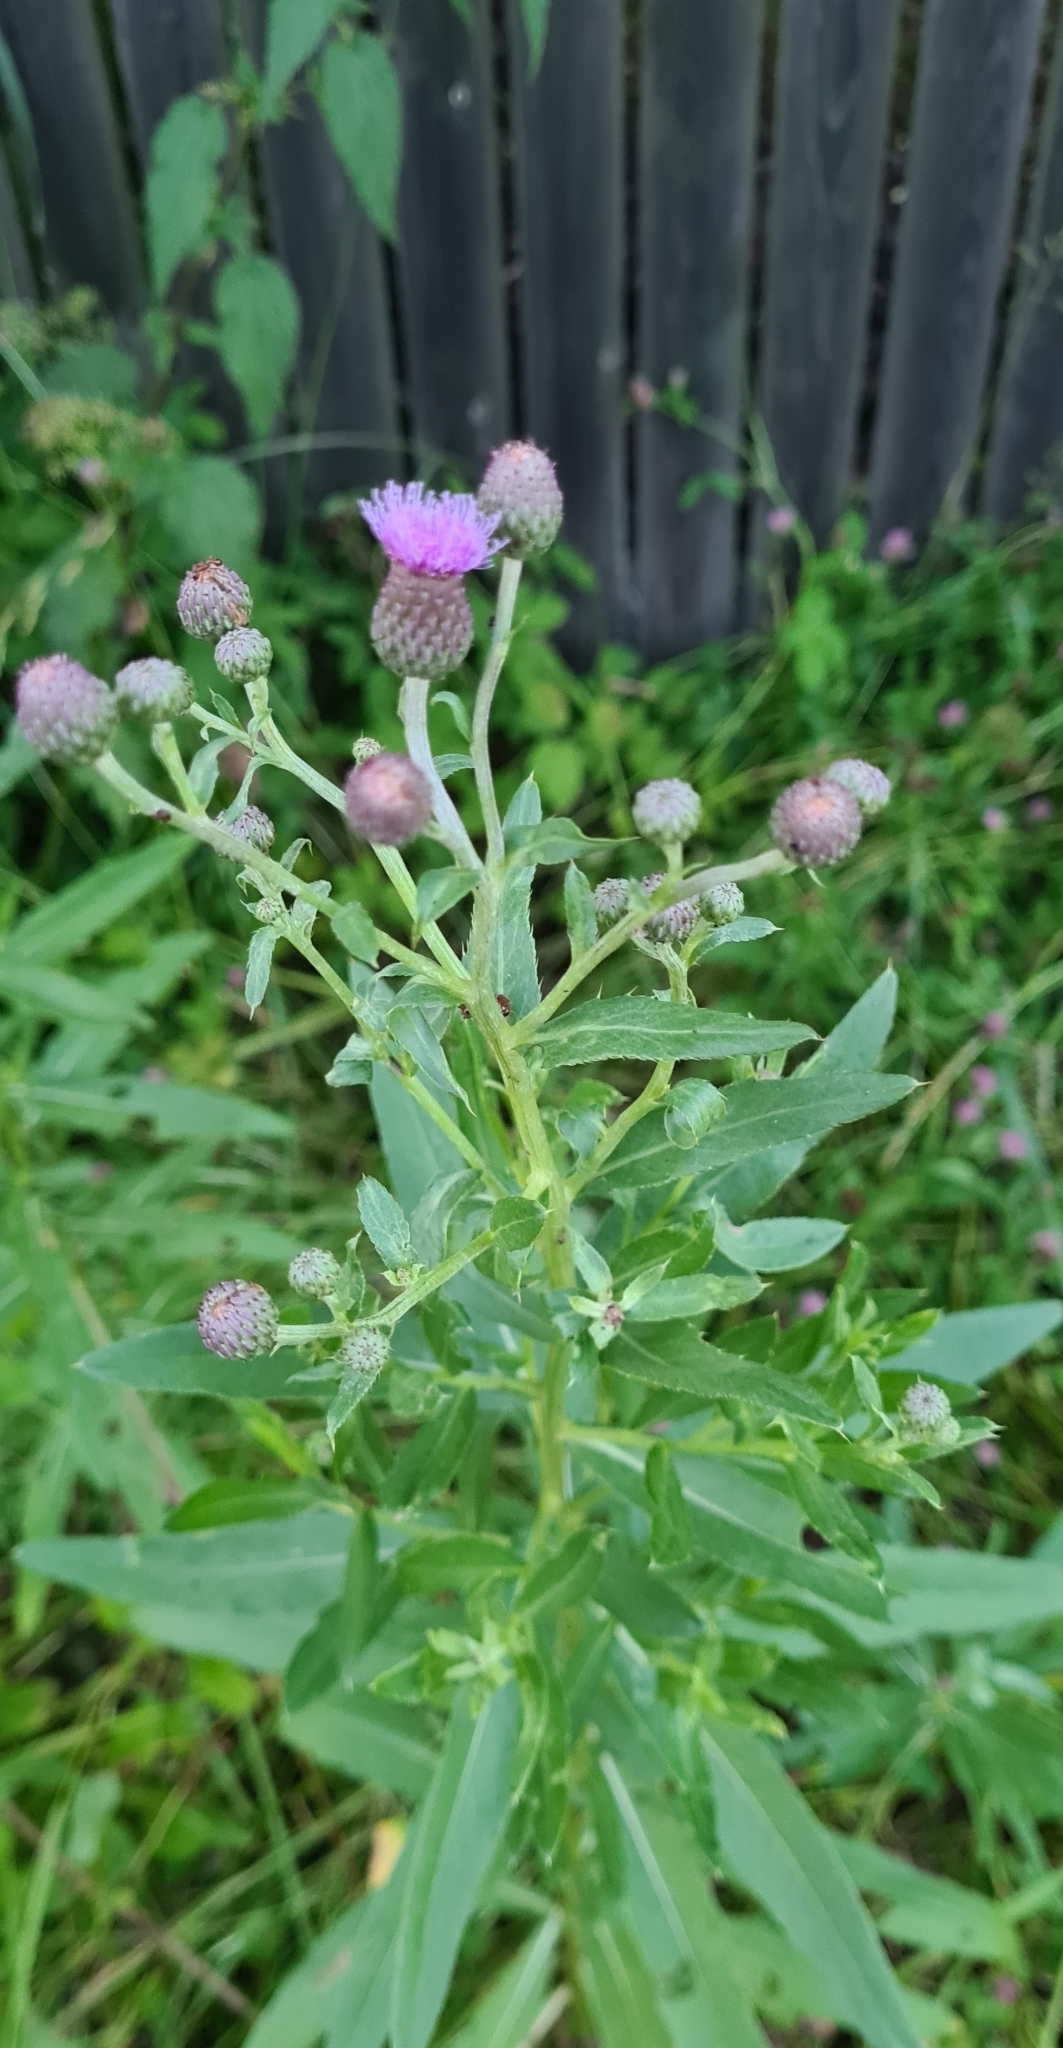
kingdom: Plantae
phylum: Tracheophyta
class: Magnoliopsida
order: Asterales
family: Asteraceae
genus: Cirsium
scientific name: Cirsium arvense
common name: Creeping thistle
